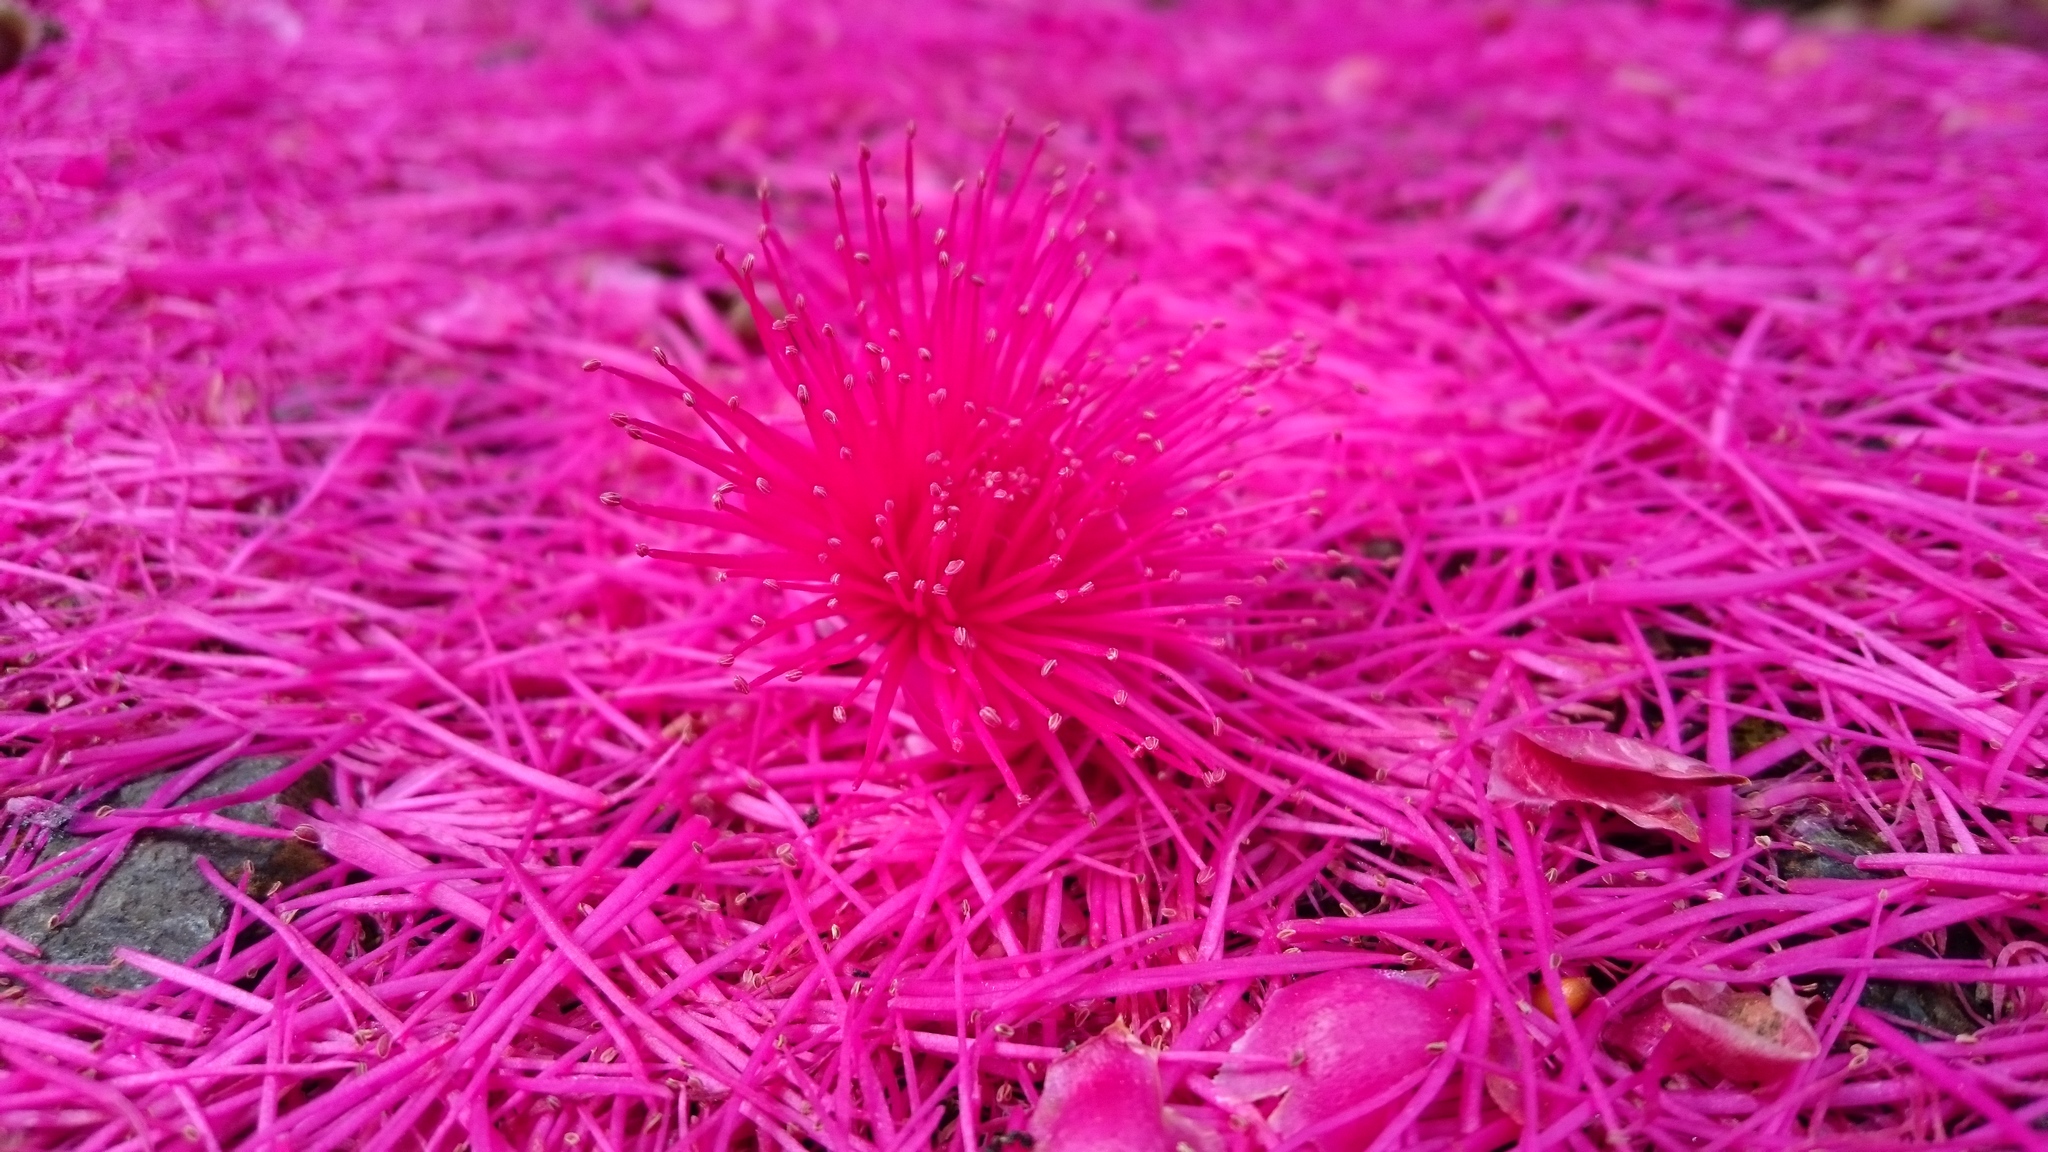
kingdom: Plantae
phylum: Tracheophyta
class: Magnoliopsida
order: Myrtales
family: Myrtaceae
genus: Syzygium
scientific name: Syzygium malaccense
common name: Malaysian apple
